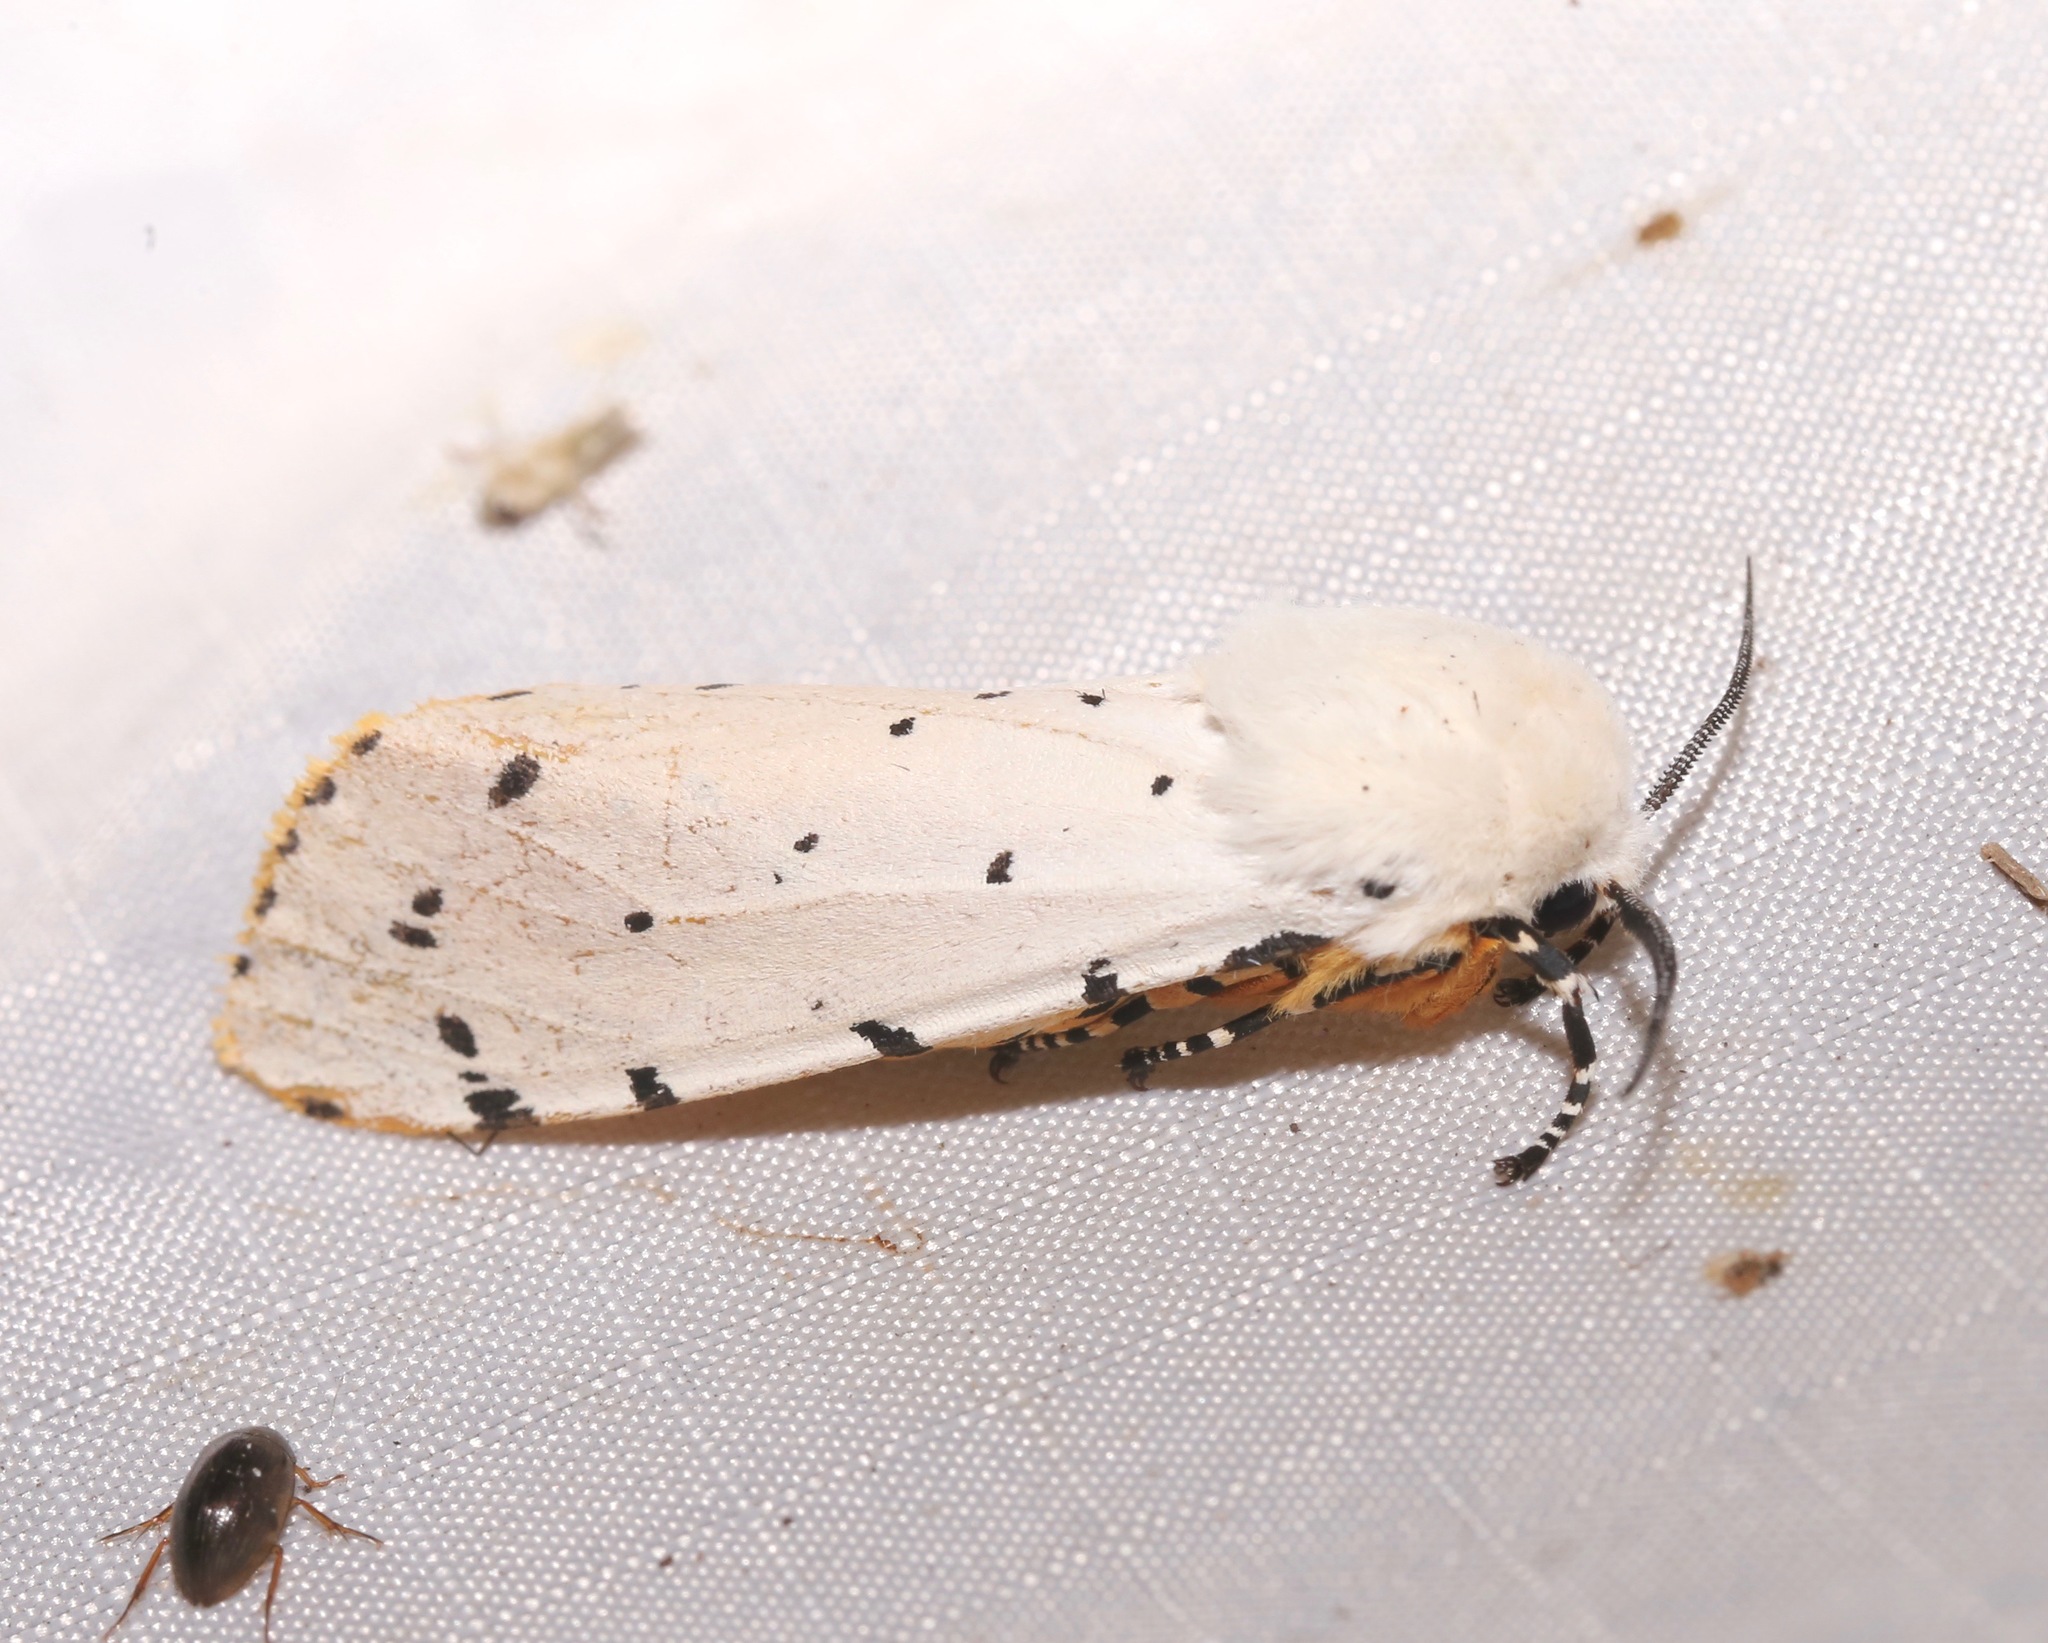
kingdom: Animalia
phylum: Arthropoda
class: Insecta
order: Lepidoptera
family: Erebidae
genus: Estigmene
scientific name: Estigmene acrea
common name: Salt marsh moth
